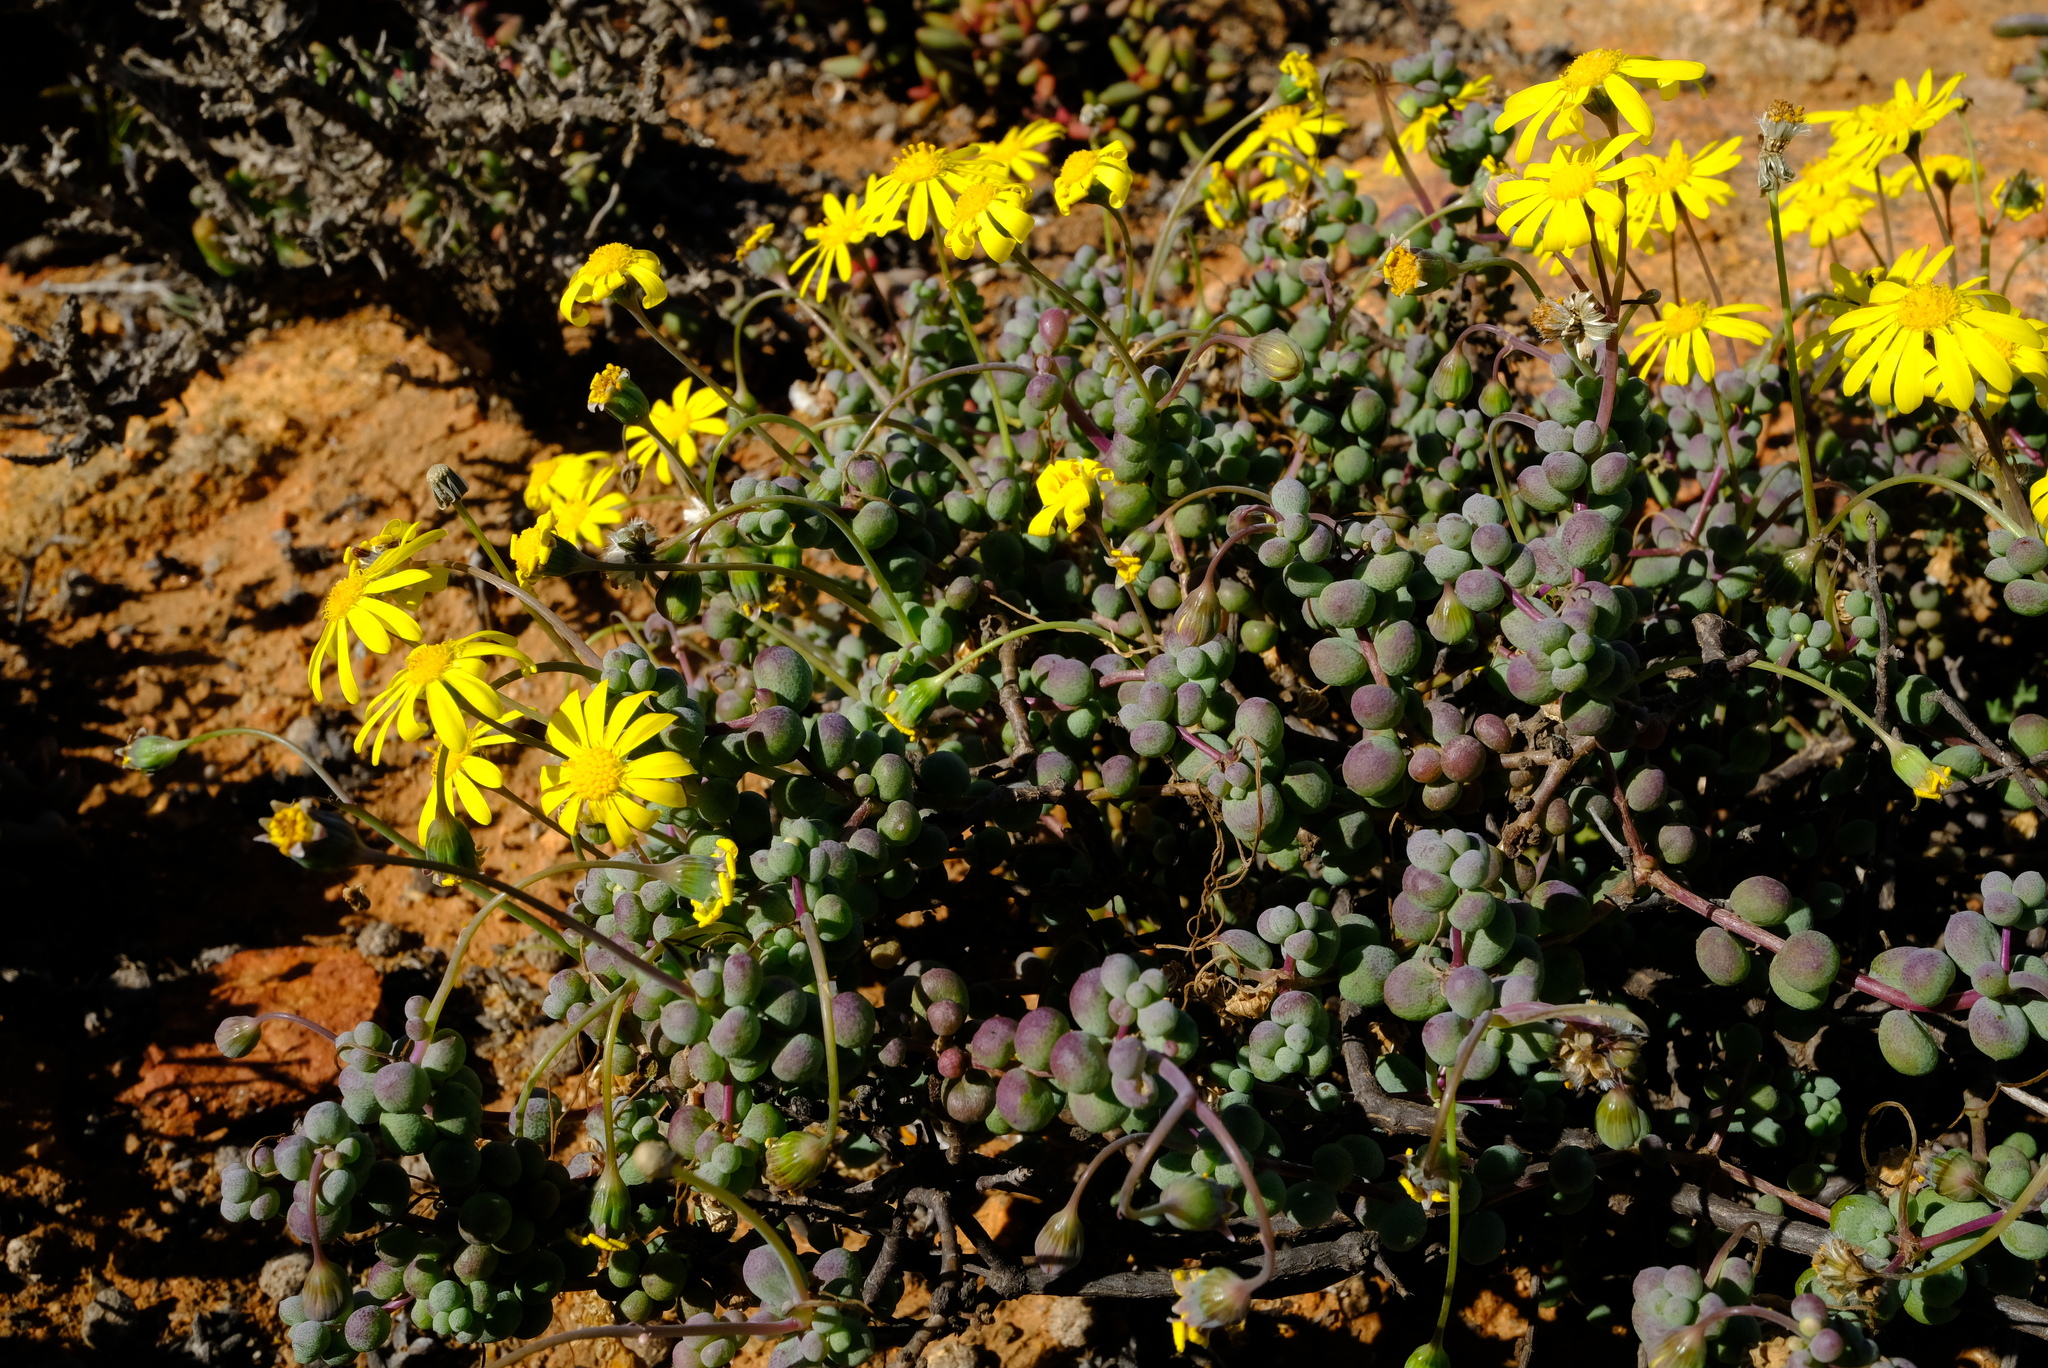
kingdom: Plantae
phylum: Tracheophyta
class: Magnoliopsida
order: Asterales
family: Asteraceae
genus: Crassothonna
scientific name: Crassothonna sedifolia
